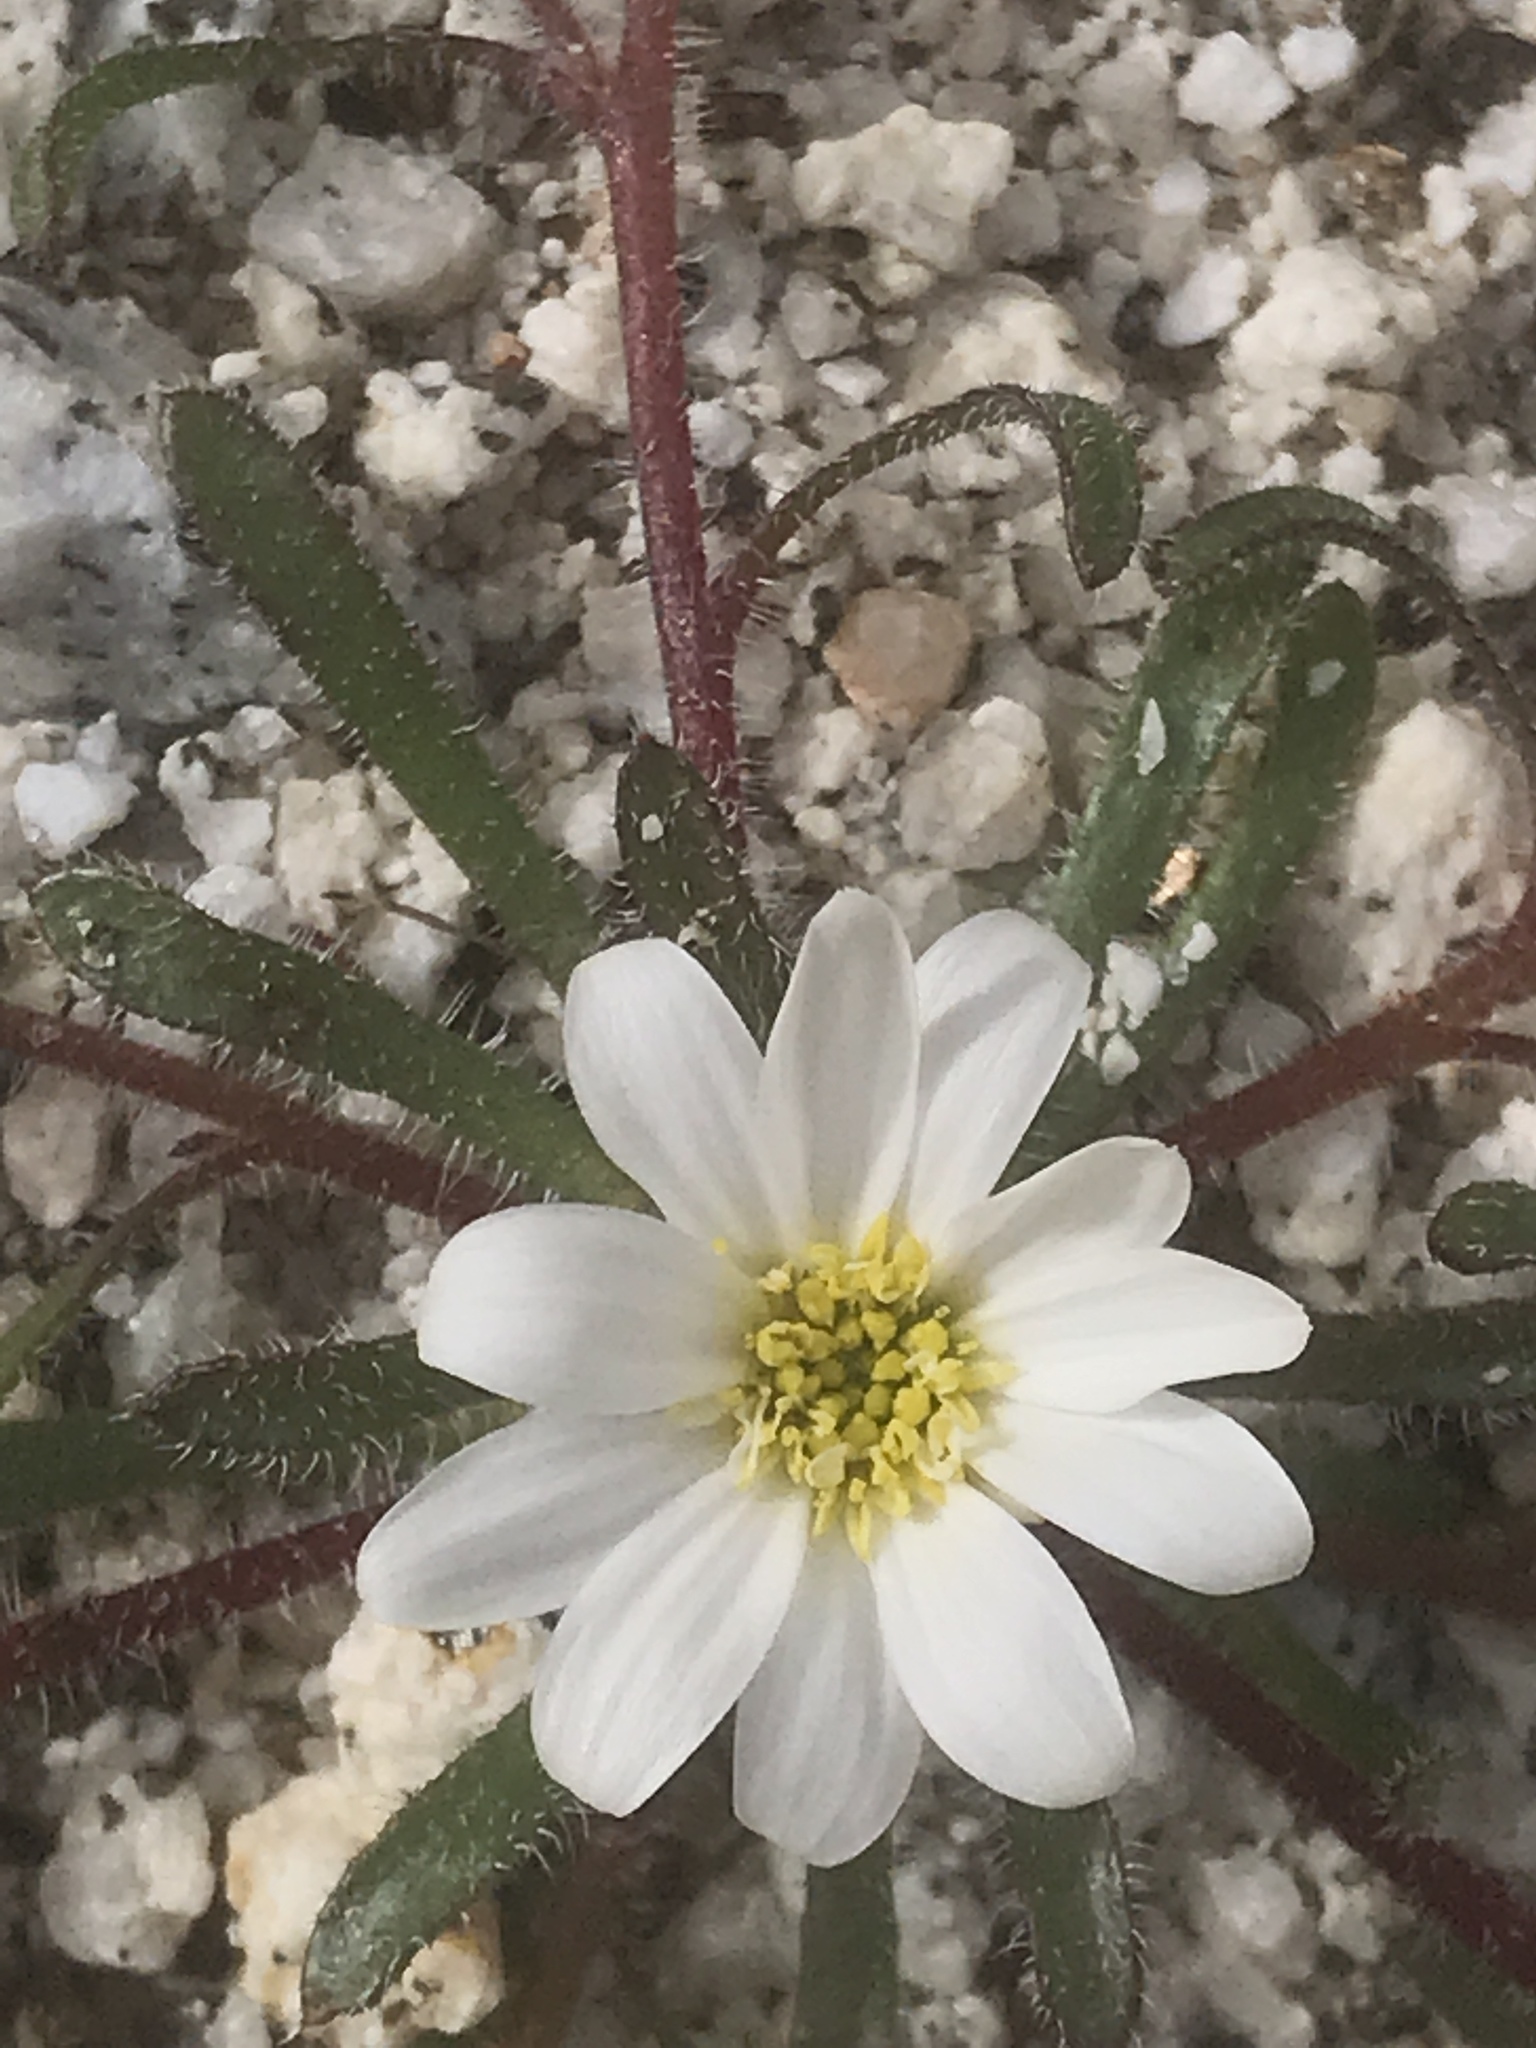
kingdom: Plantae
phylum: Tracheophyta
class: Magnoliopsida
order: Asterales
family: Asteraceae
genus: Monoptilon
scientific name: Monoptilon bellioides
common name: Bristly desertstar
